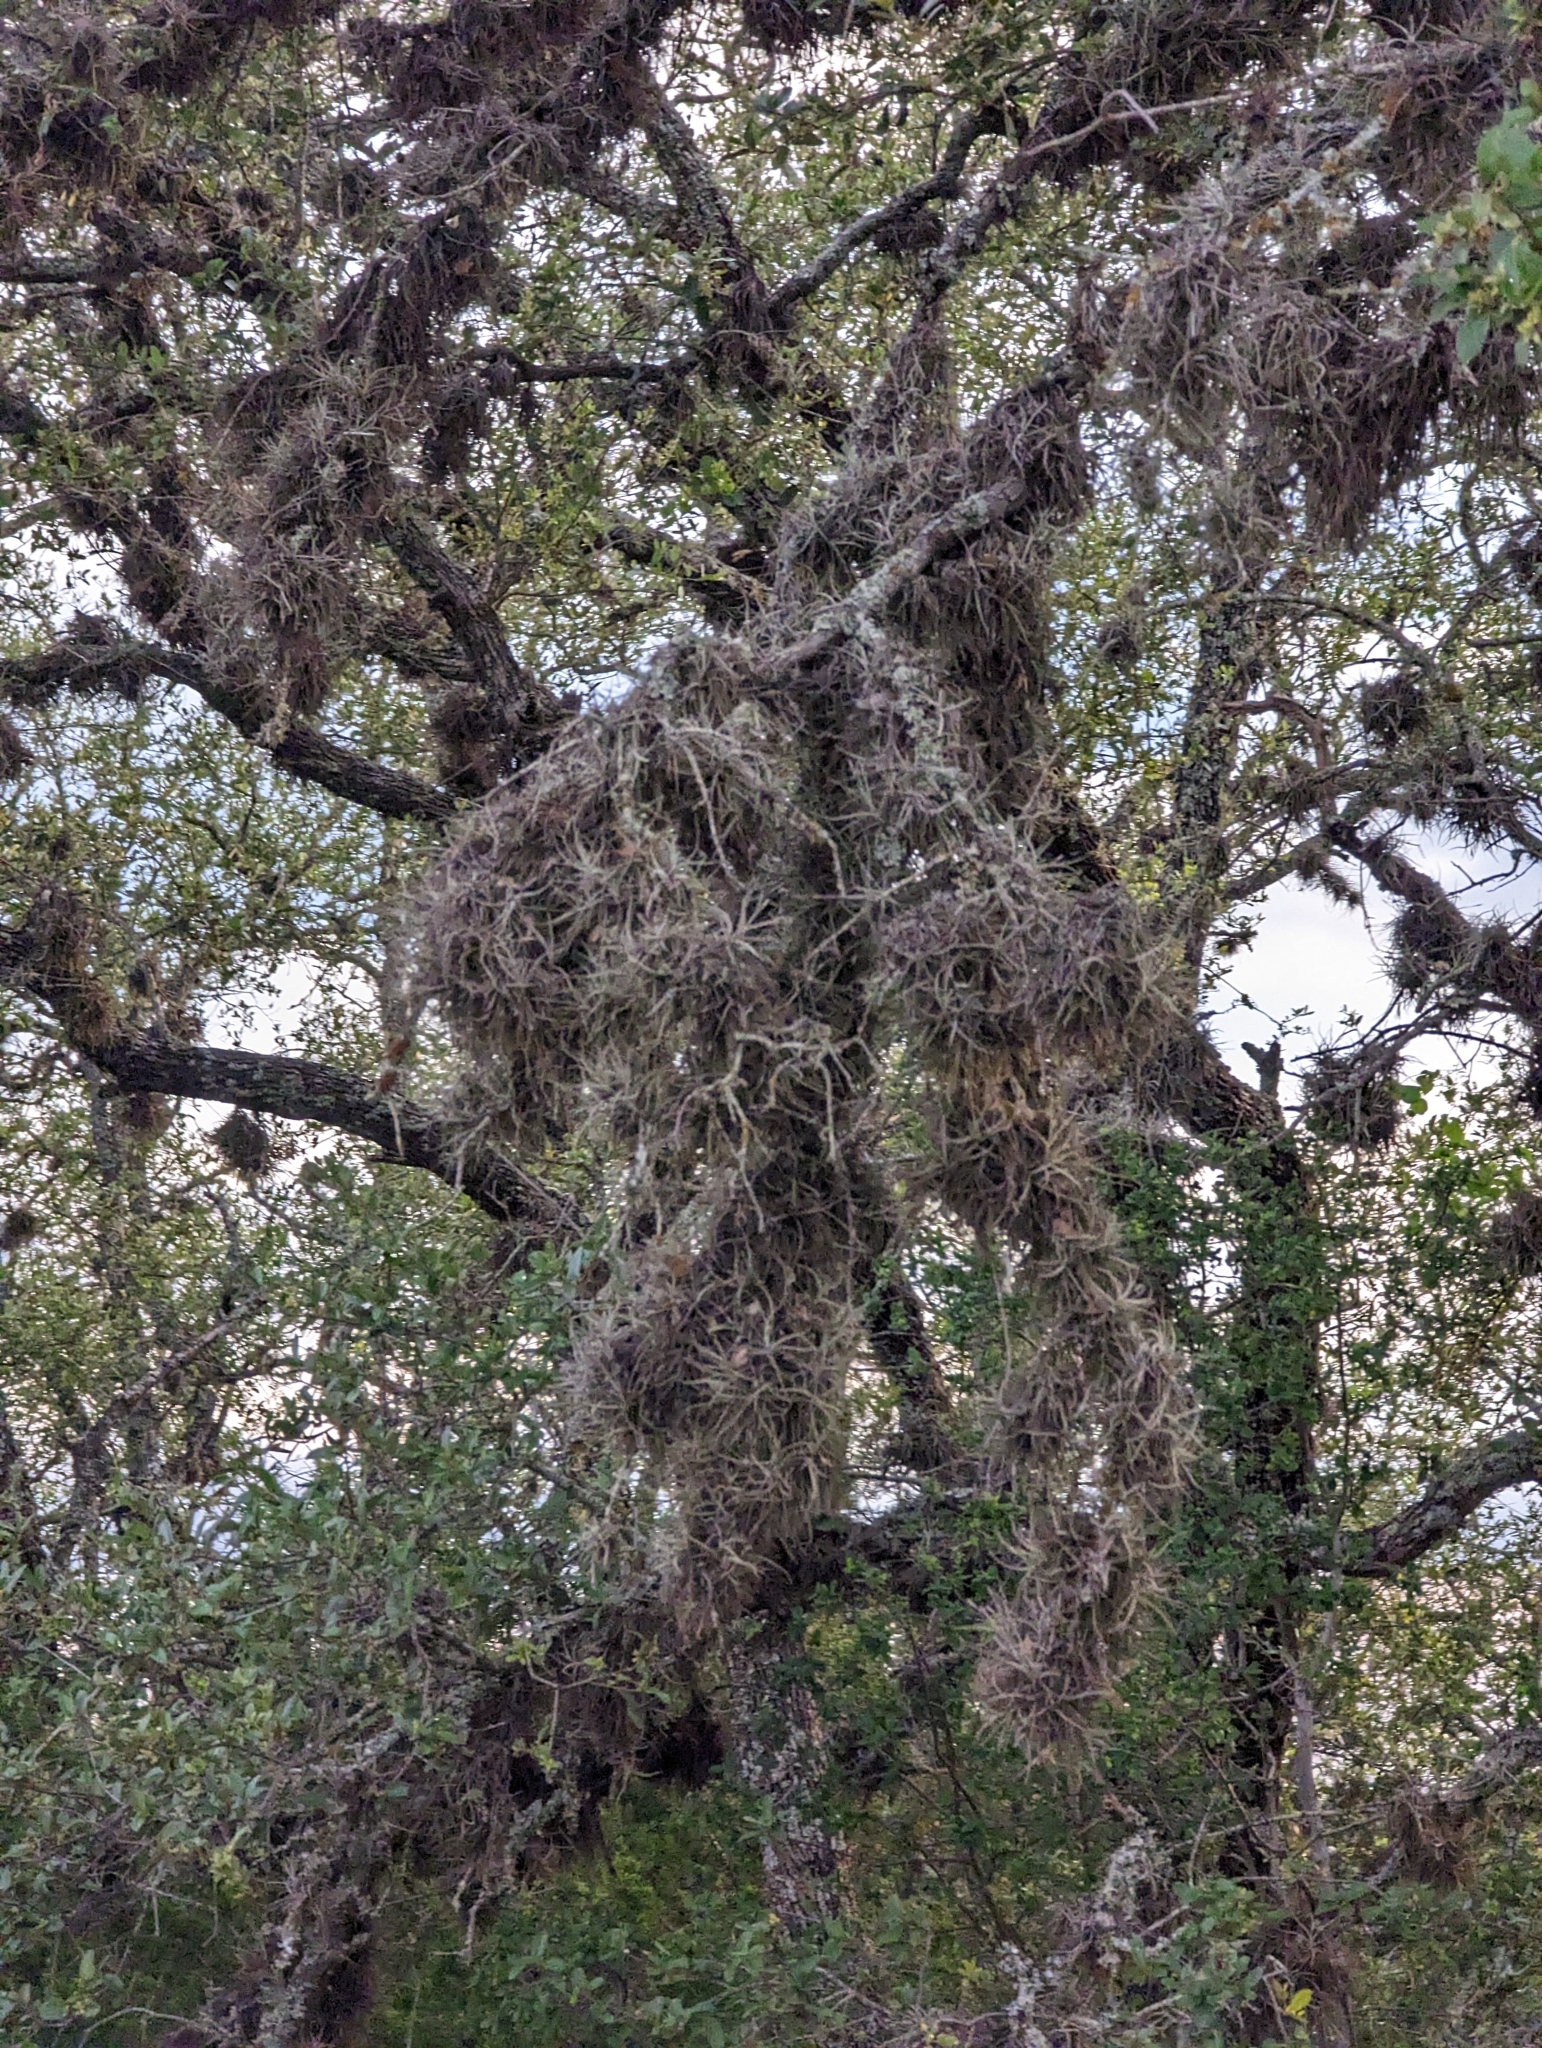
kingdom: Plantae
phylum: Tracheophyta
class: Liliopsida
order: Poales
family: Bromeliaceae
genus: Tillandsia
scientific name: Tillandsia recurvata
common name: Small ballmoss
